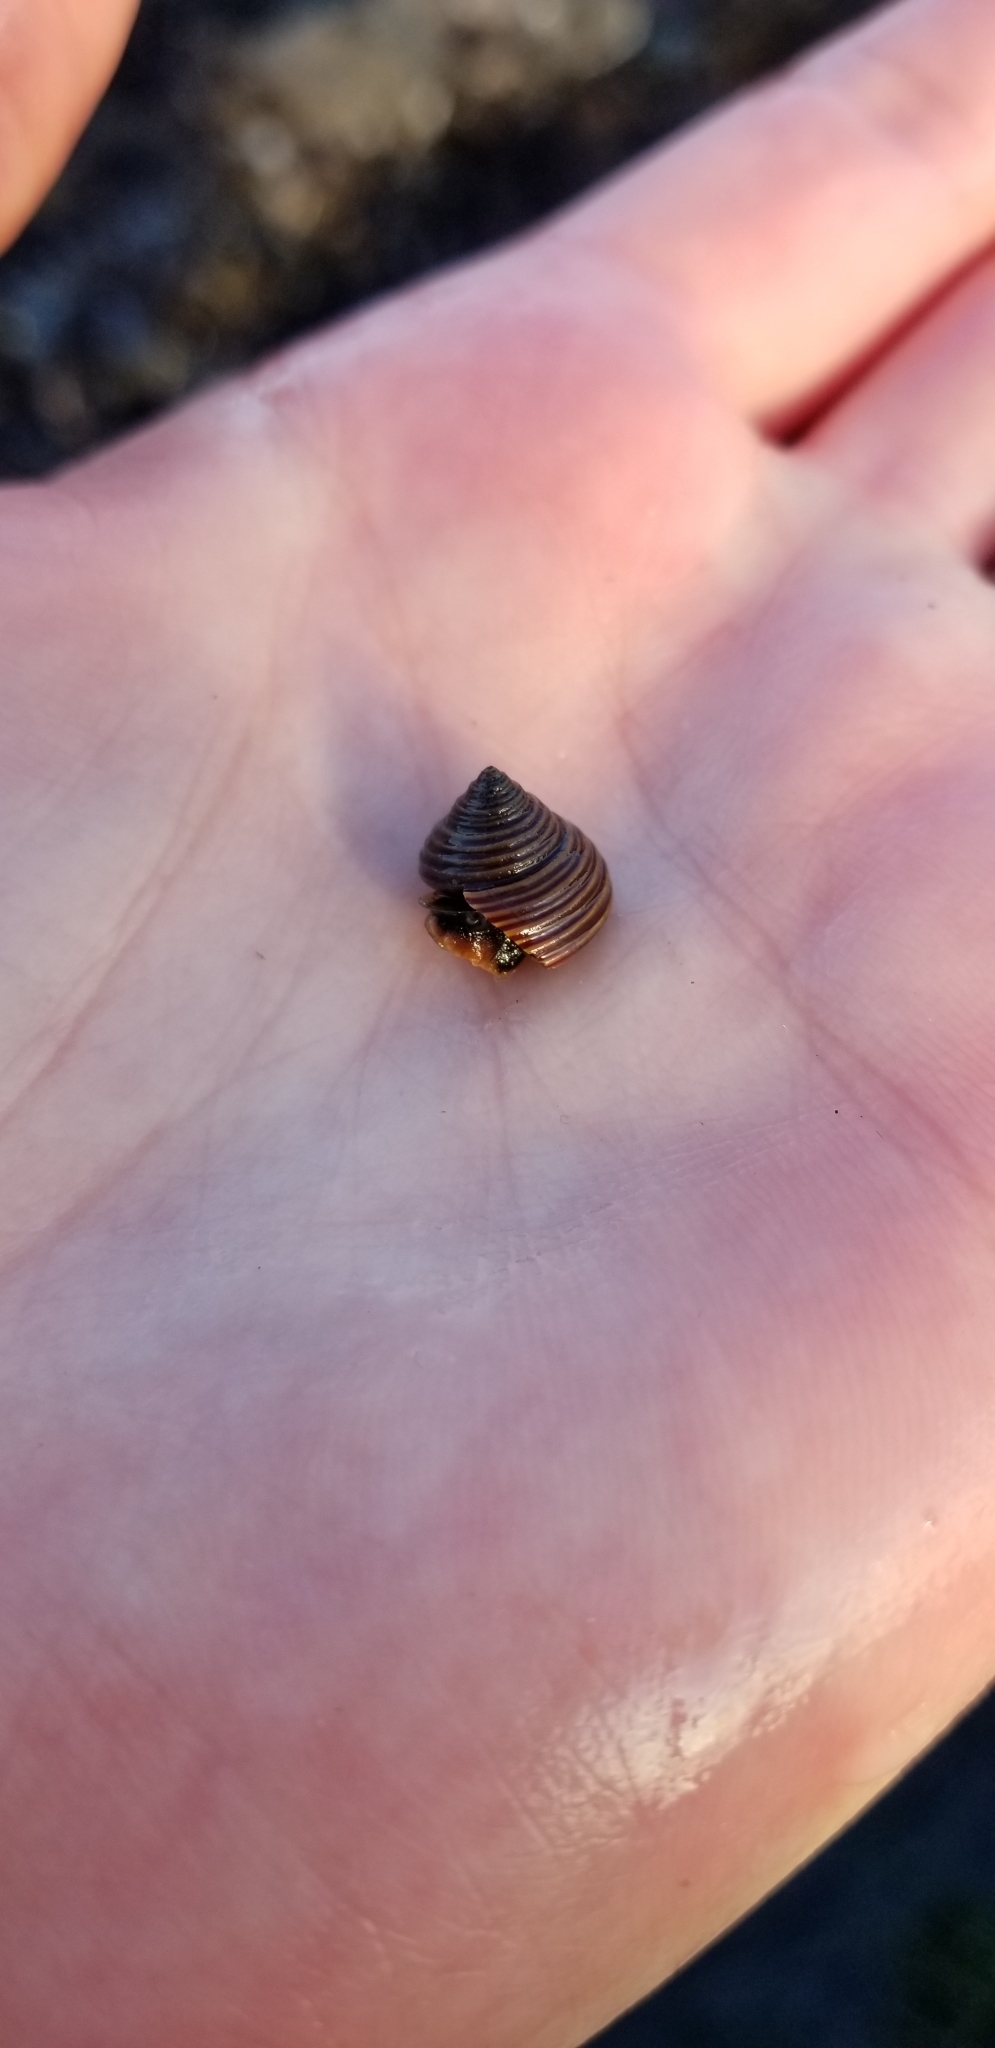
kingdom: Animalia
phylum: Mollusca
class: Gastropoda
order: Trochida
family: Calliostomatidae
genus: Calliostoma
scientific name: Calliostoma ligatum
